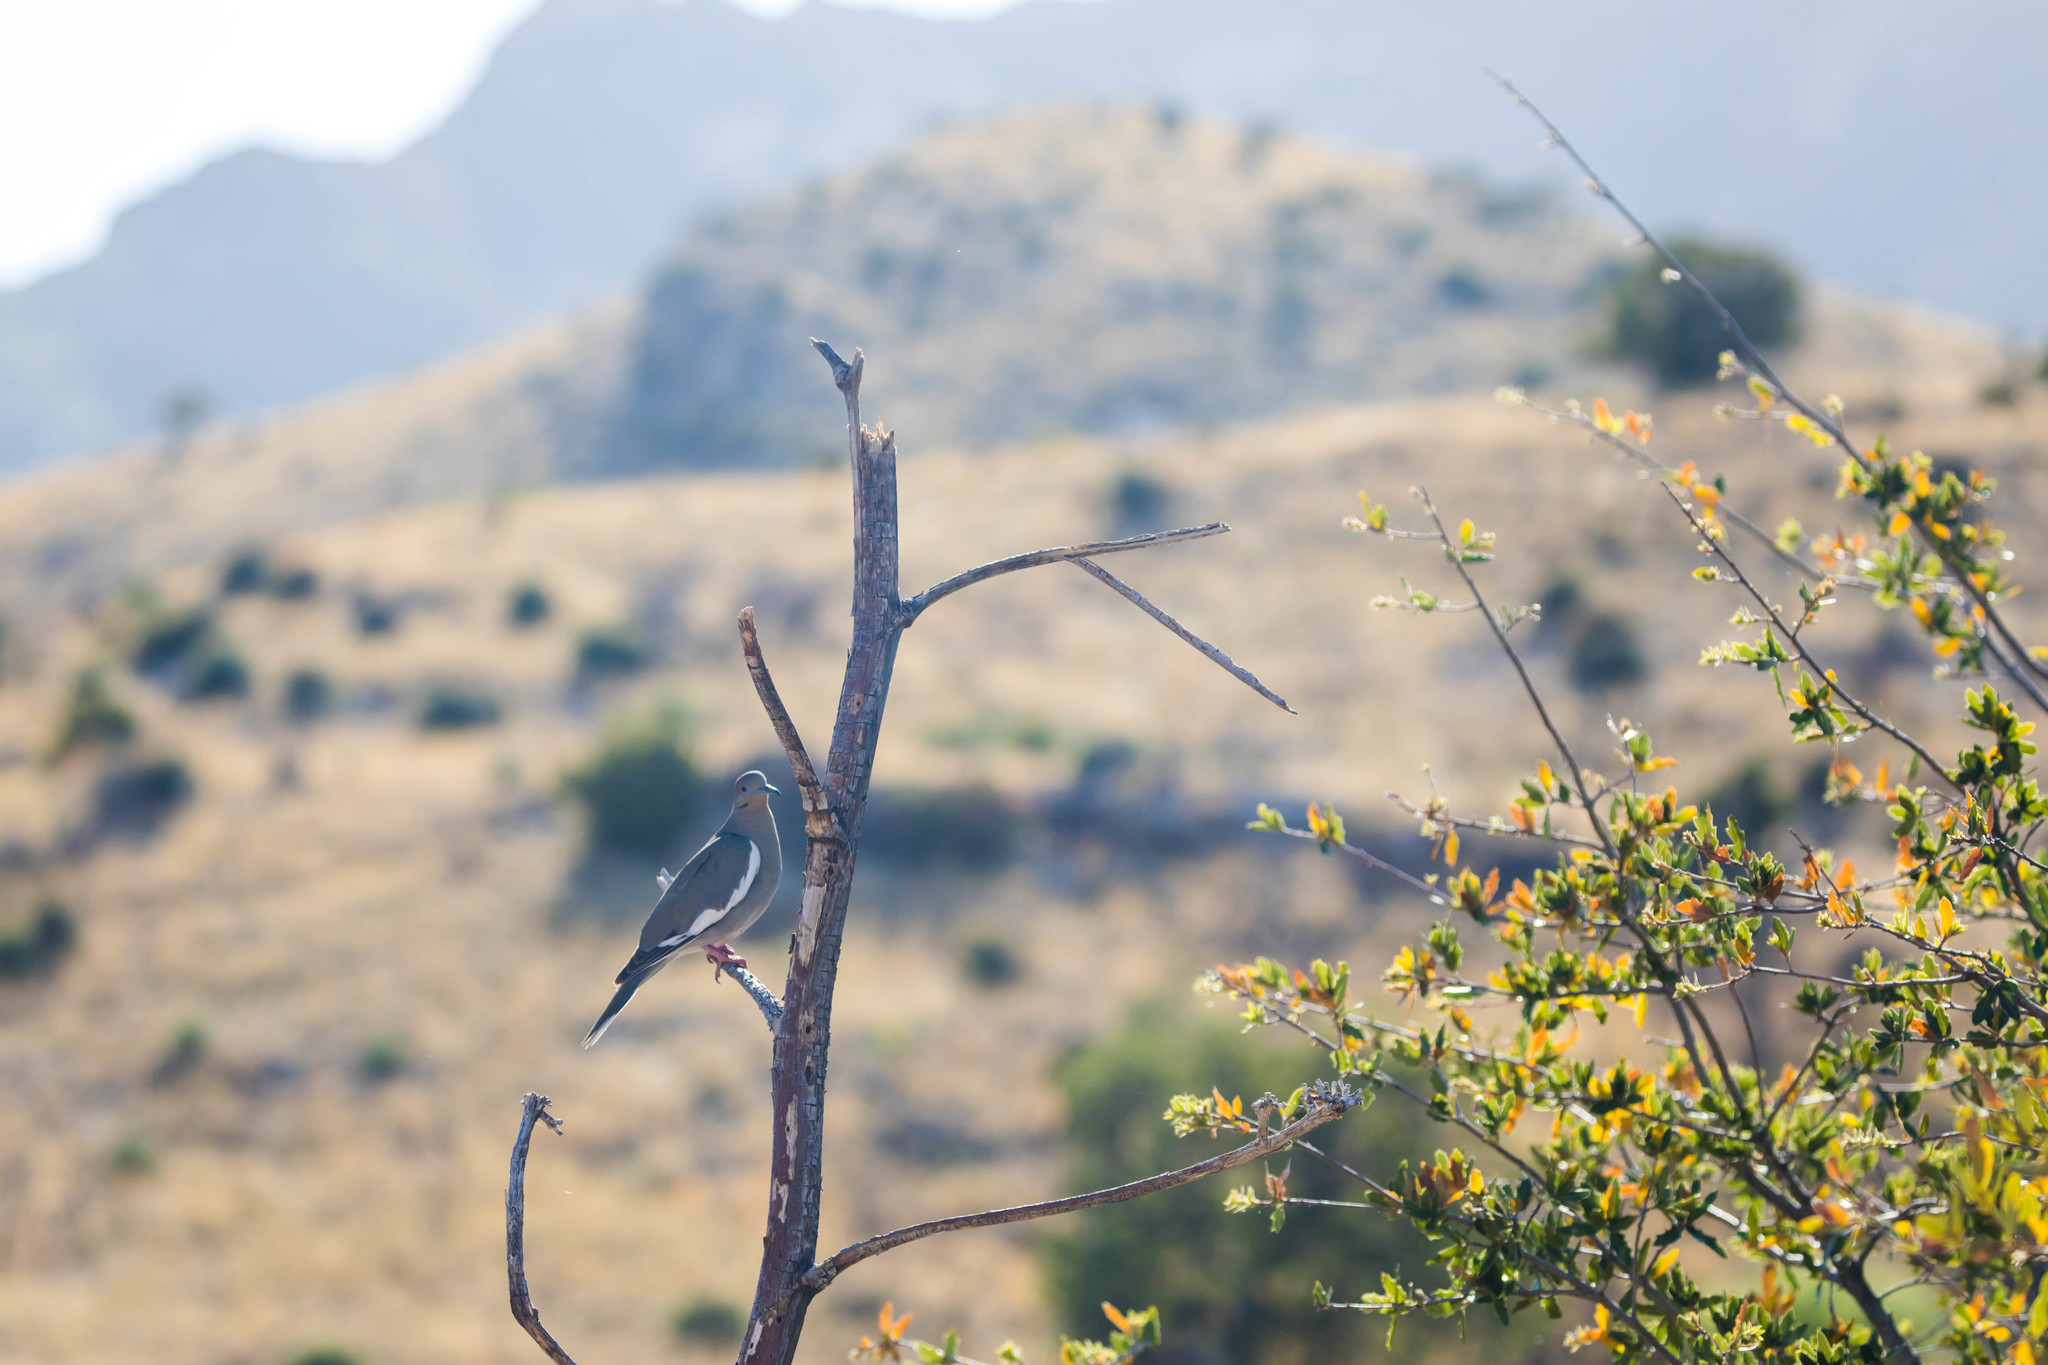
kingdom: Animalia
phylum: Chordata
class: Aves
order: Columbiformes
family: Columbidae
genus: Zenaida
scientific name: Zenaida asiatica
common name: White-winged dove
